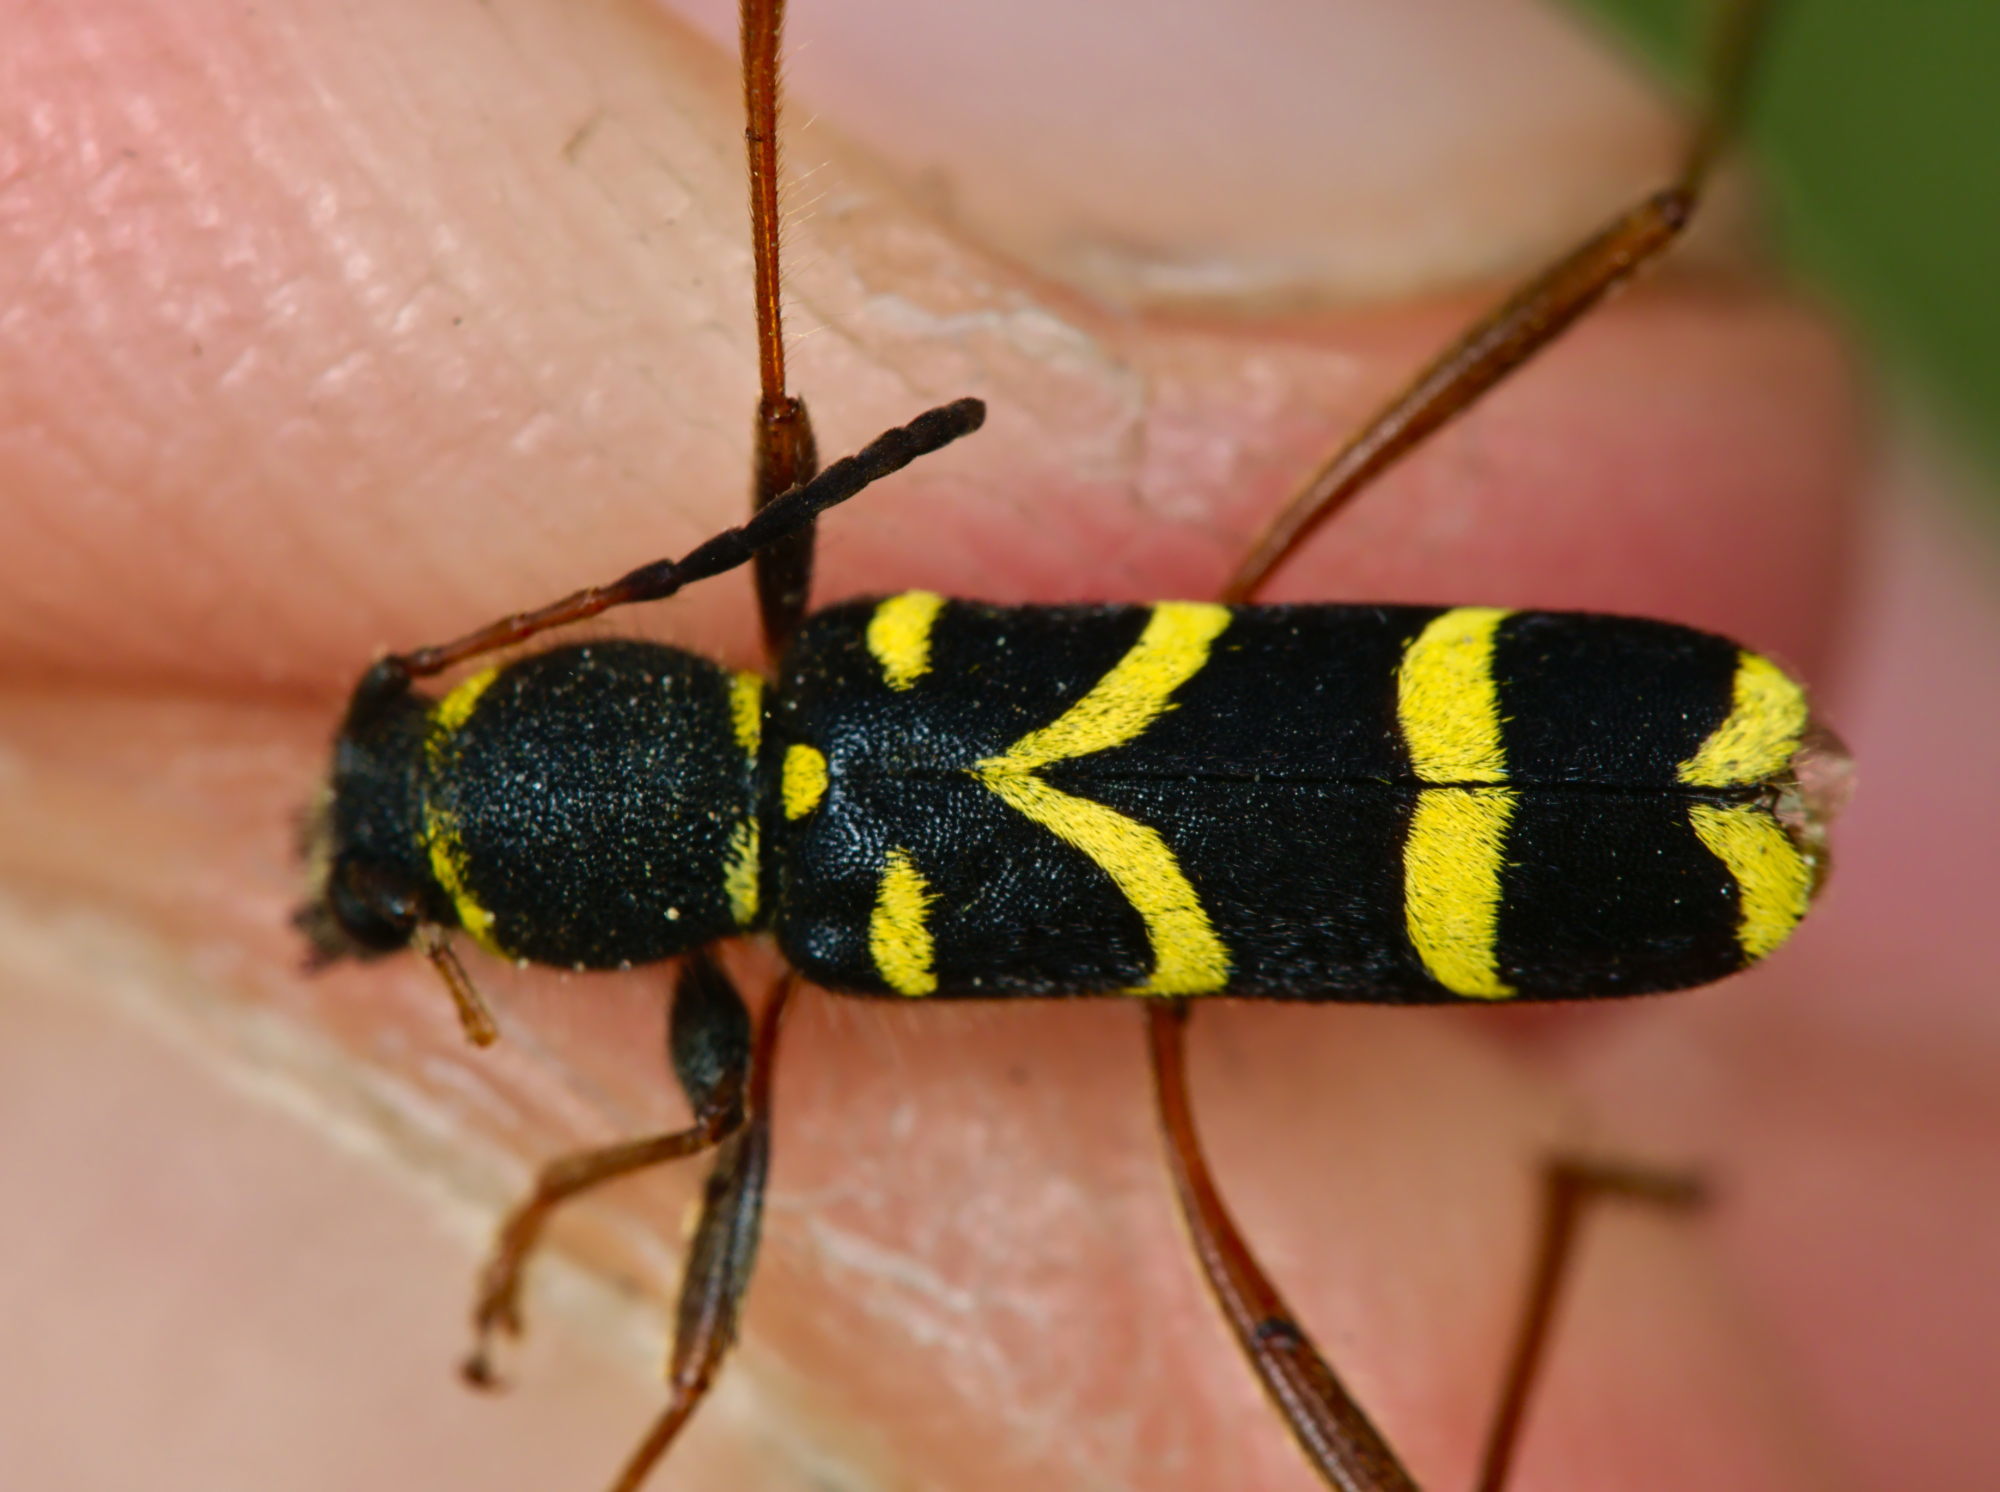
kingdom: Animalia
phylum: Arthropoda
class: Insecta
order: Coleoptera
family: Cerambycidae
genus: Clytus
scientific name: Clytus arietis
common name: Wasp beetle
